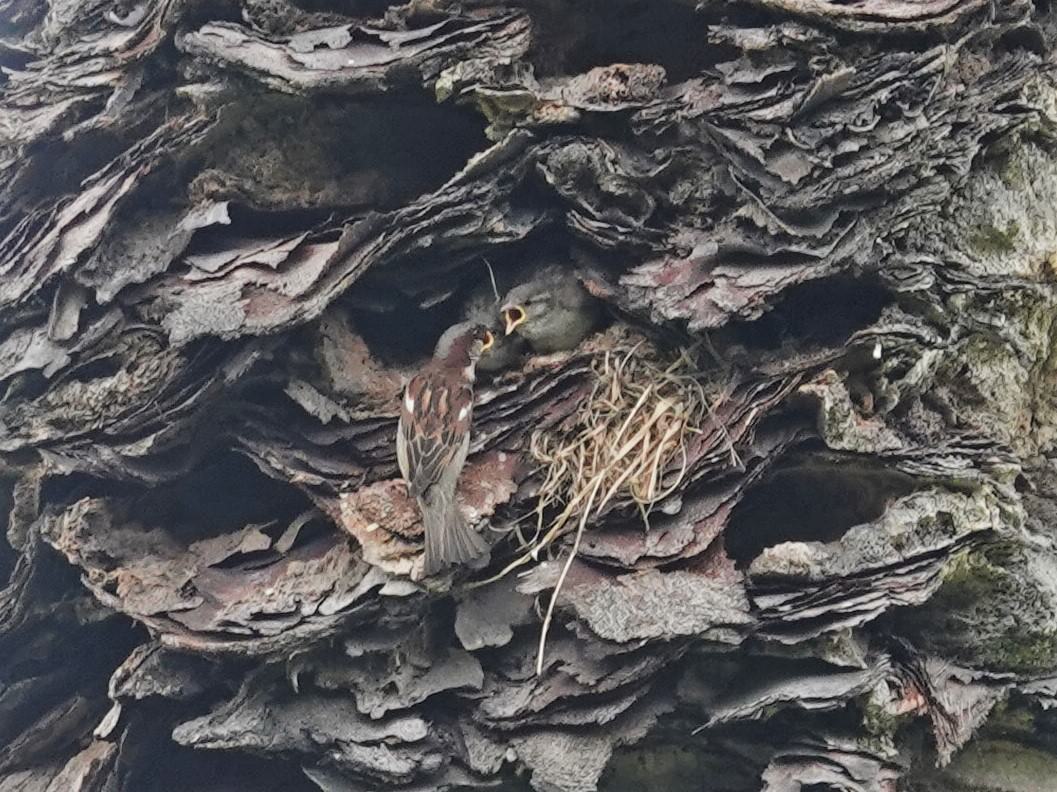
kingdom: Animalia
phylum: Chordata
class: Aves
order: Passeriformes
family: Passeridae
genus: Passer
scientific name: Passer domesticus
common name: House sparrow
